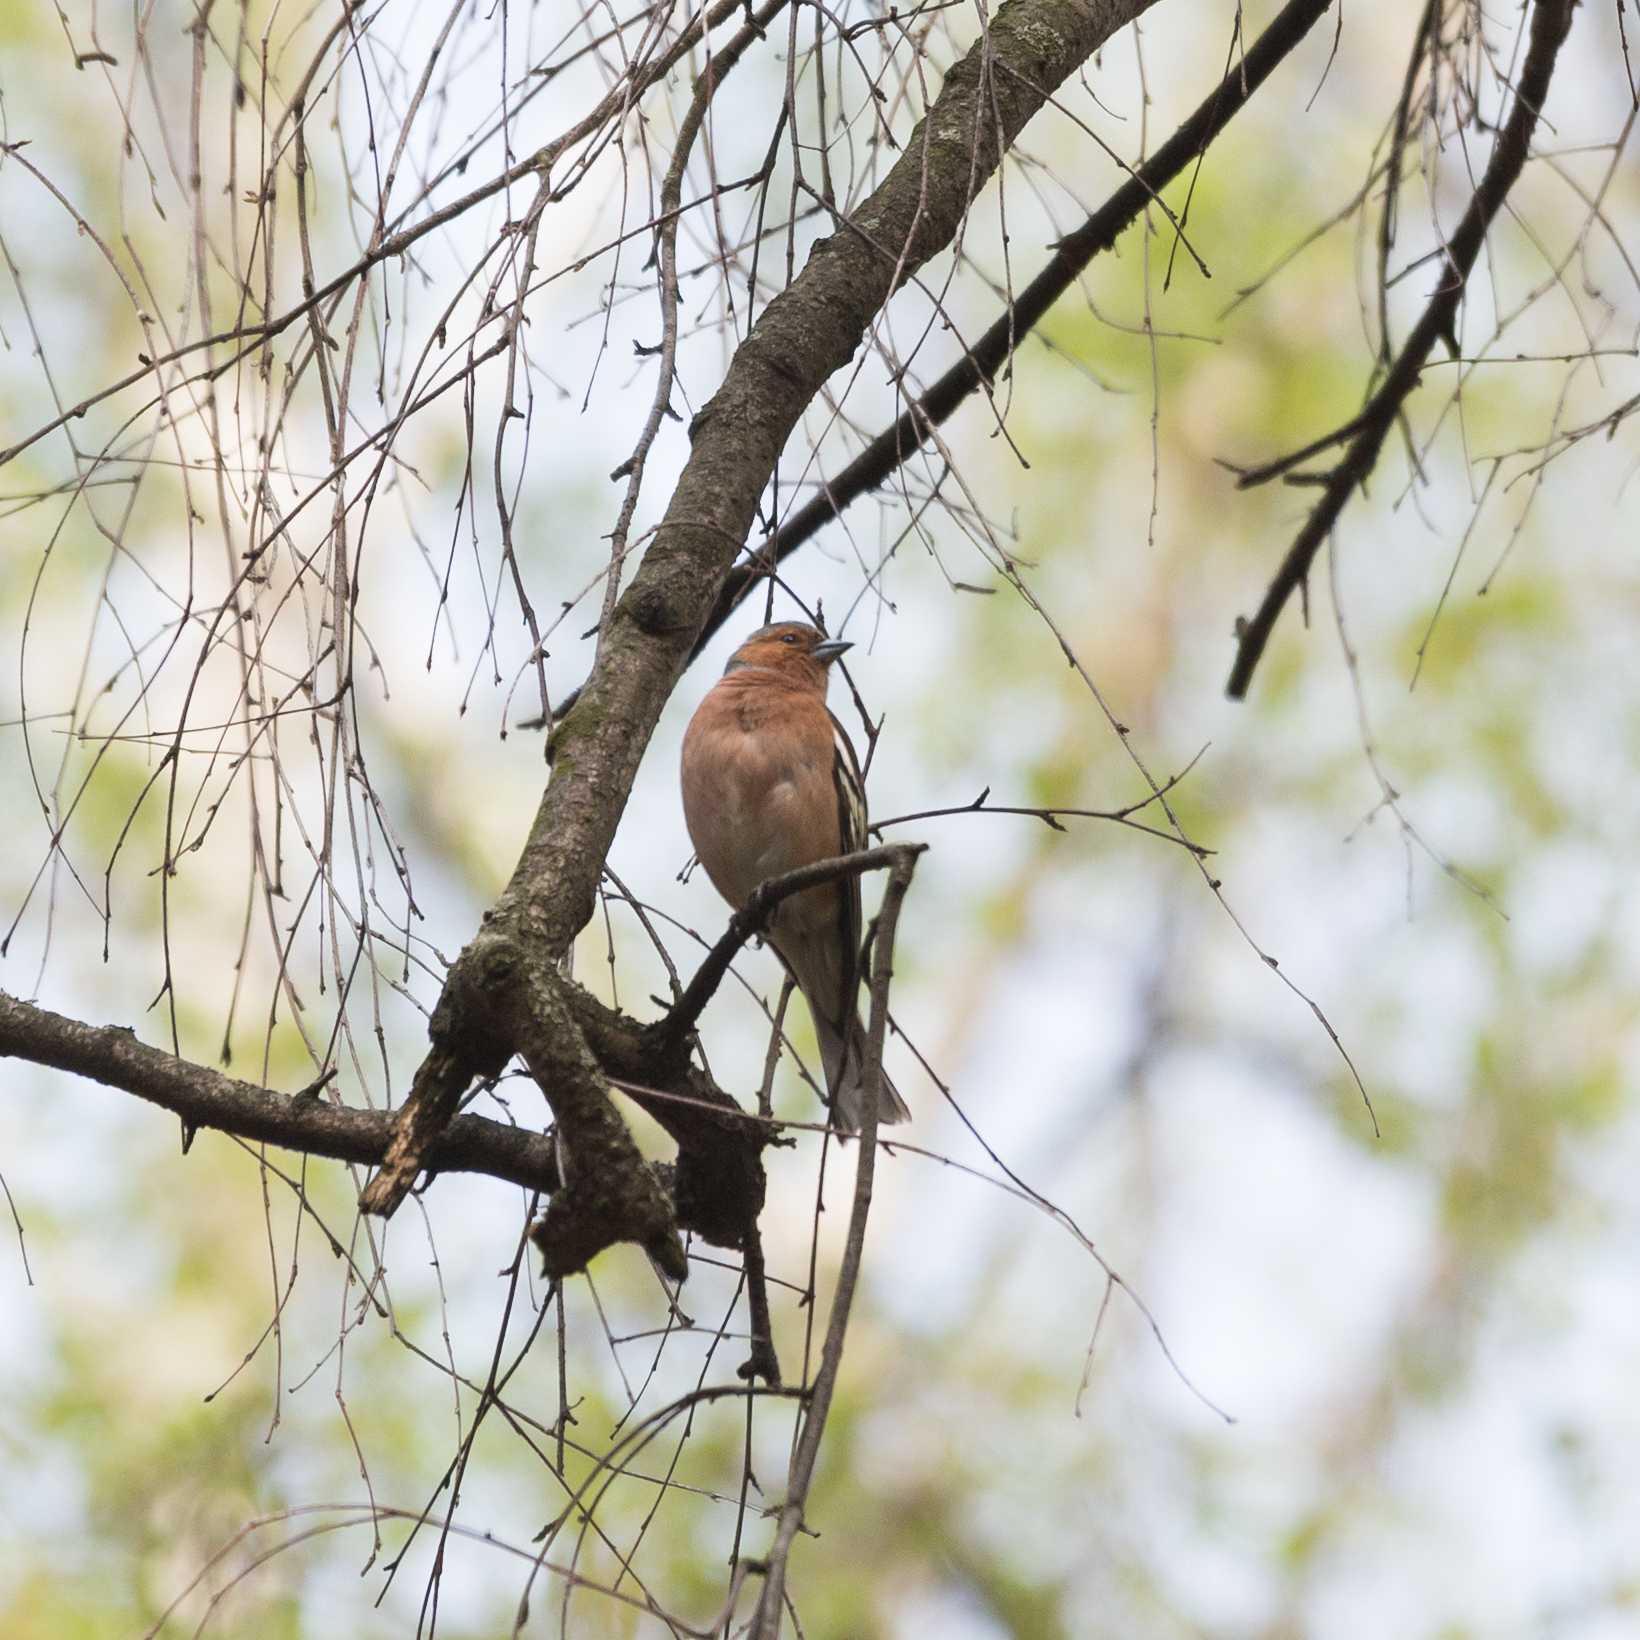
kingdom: Animalia
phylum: Chordata
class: Aves
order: Passeriformes
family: Fringillidae
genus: Fringilla
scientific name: Fringilla coelebs
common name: Common chaffinch
